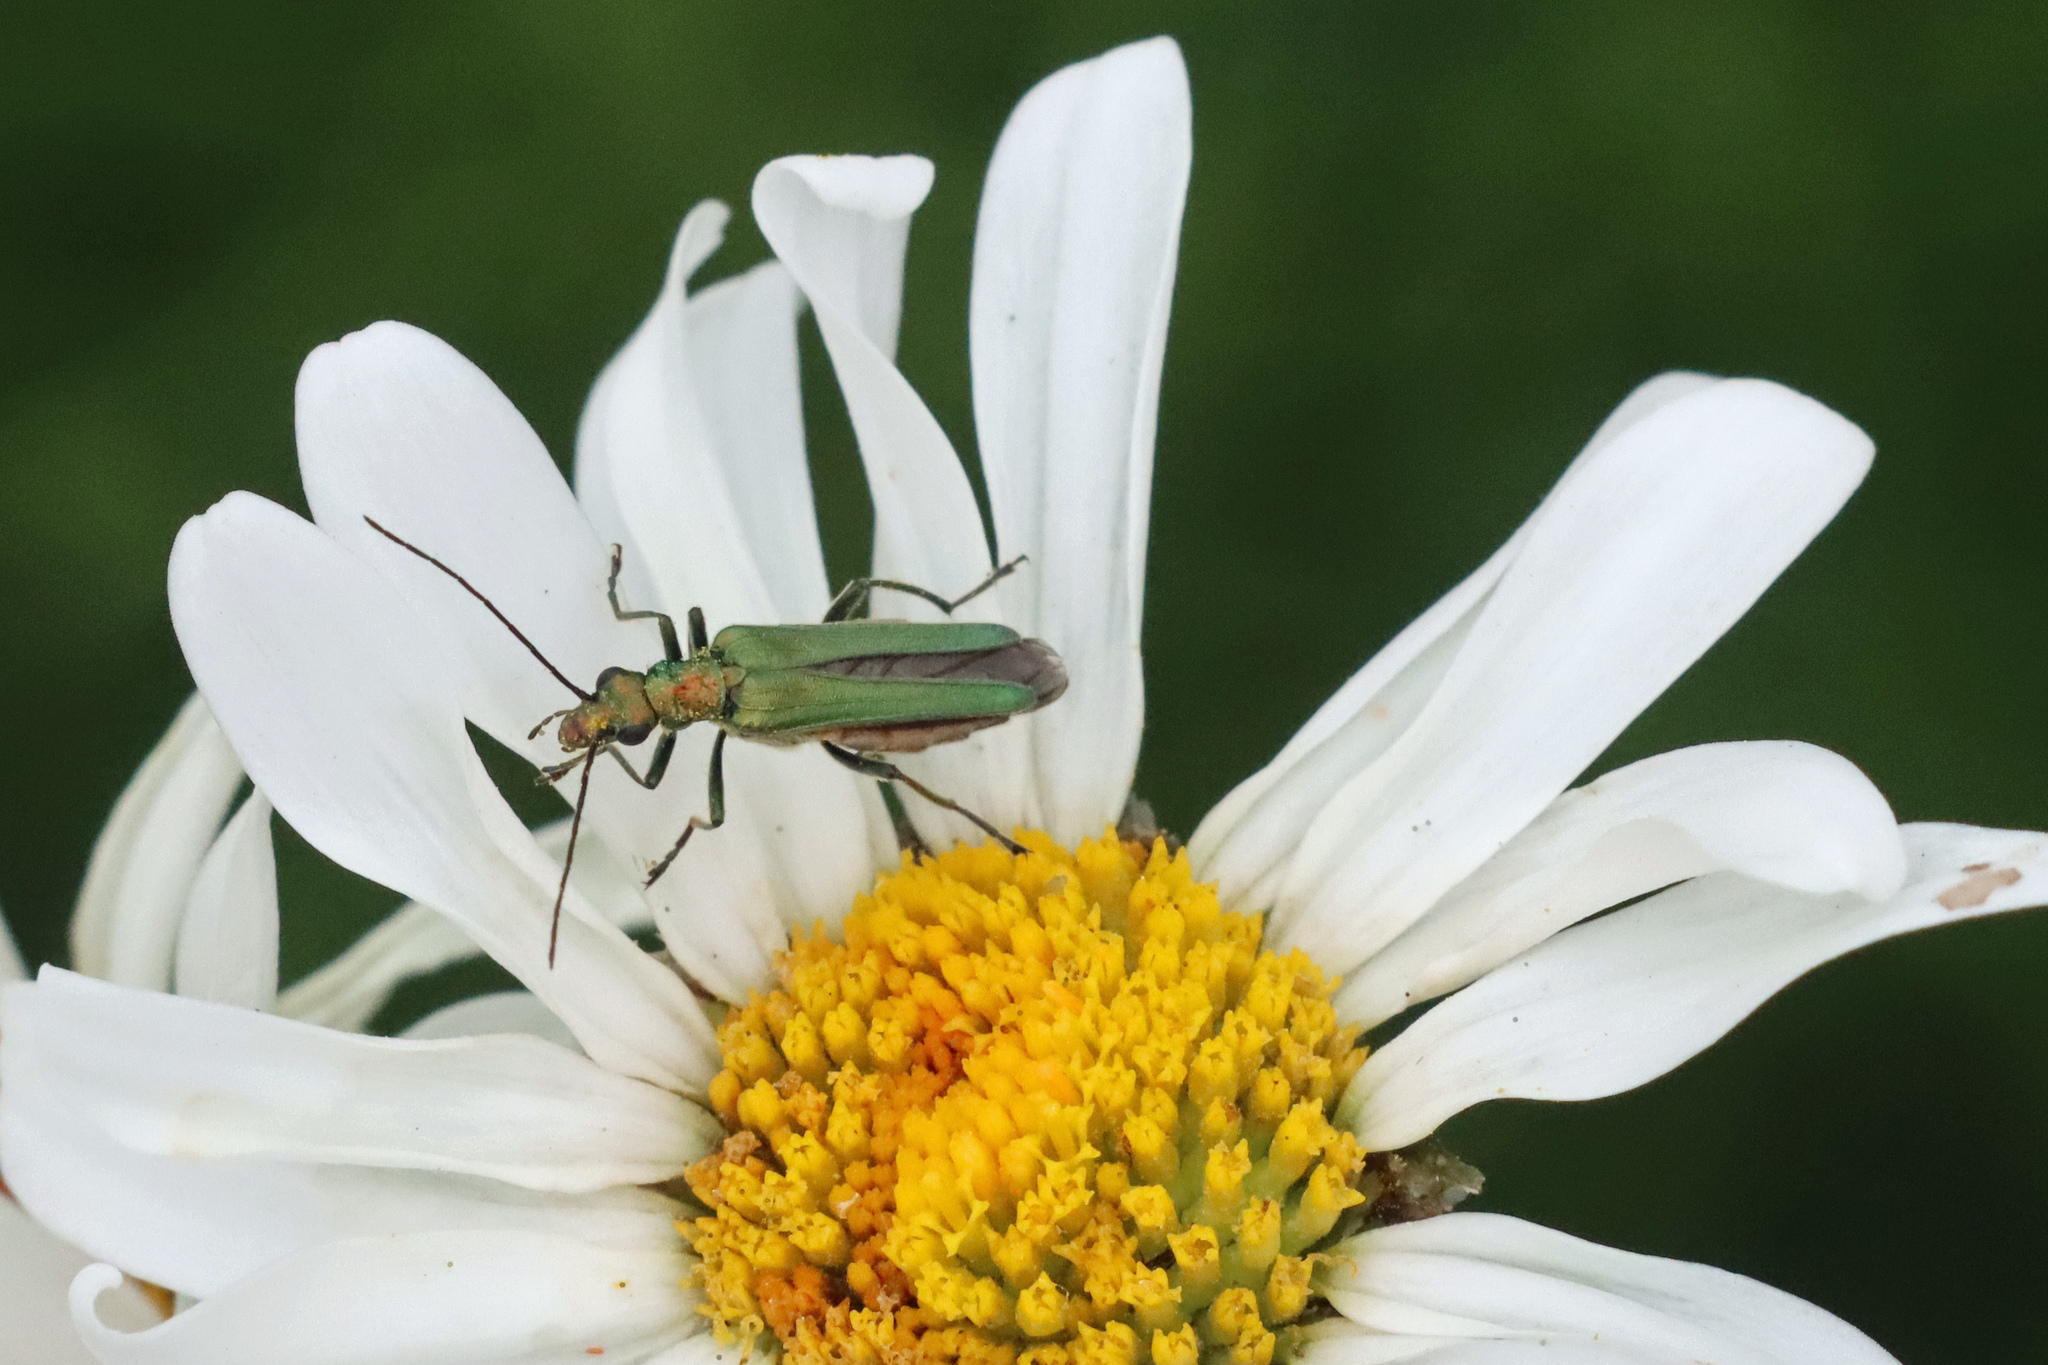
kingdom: Animalia
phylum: Arthropoda
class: Insecta
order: Coleoptera
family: Oedemeridae
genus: Oedemera
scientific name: Oedemera nobilis
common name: Swollen-thighed beetle
